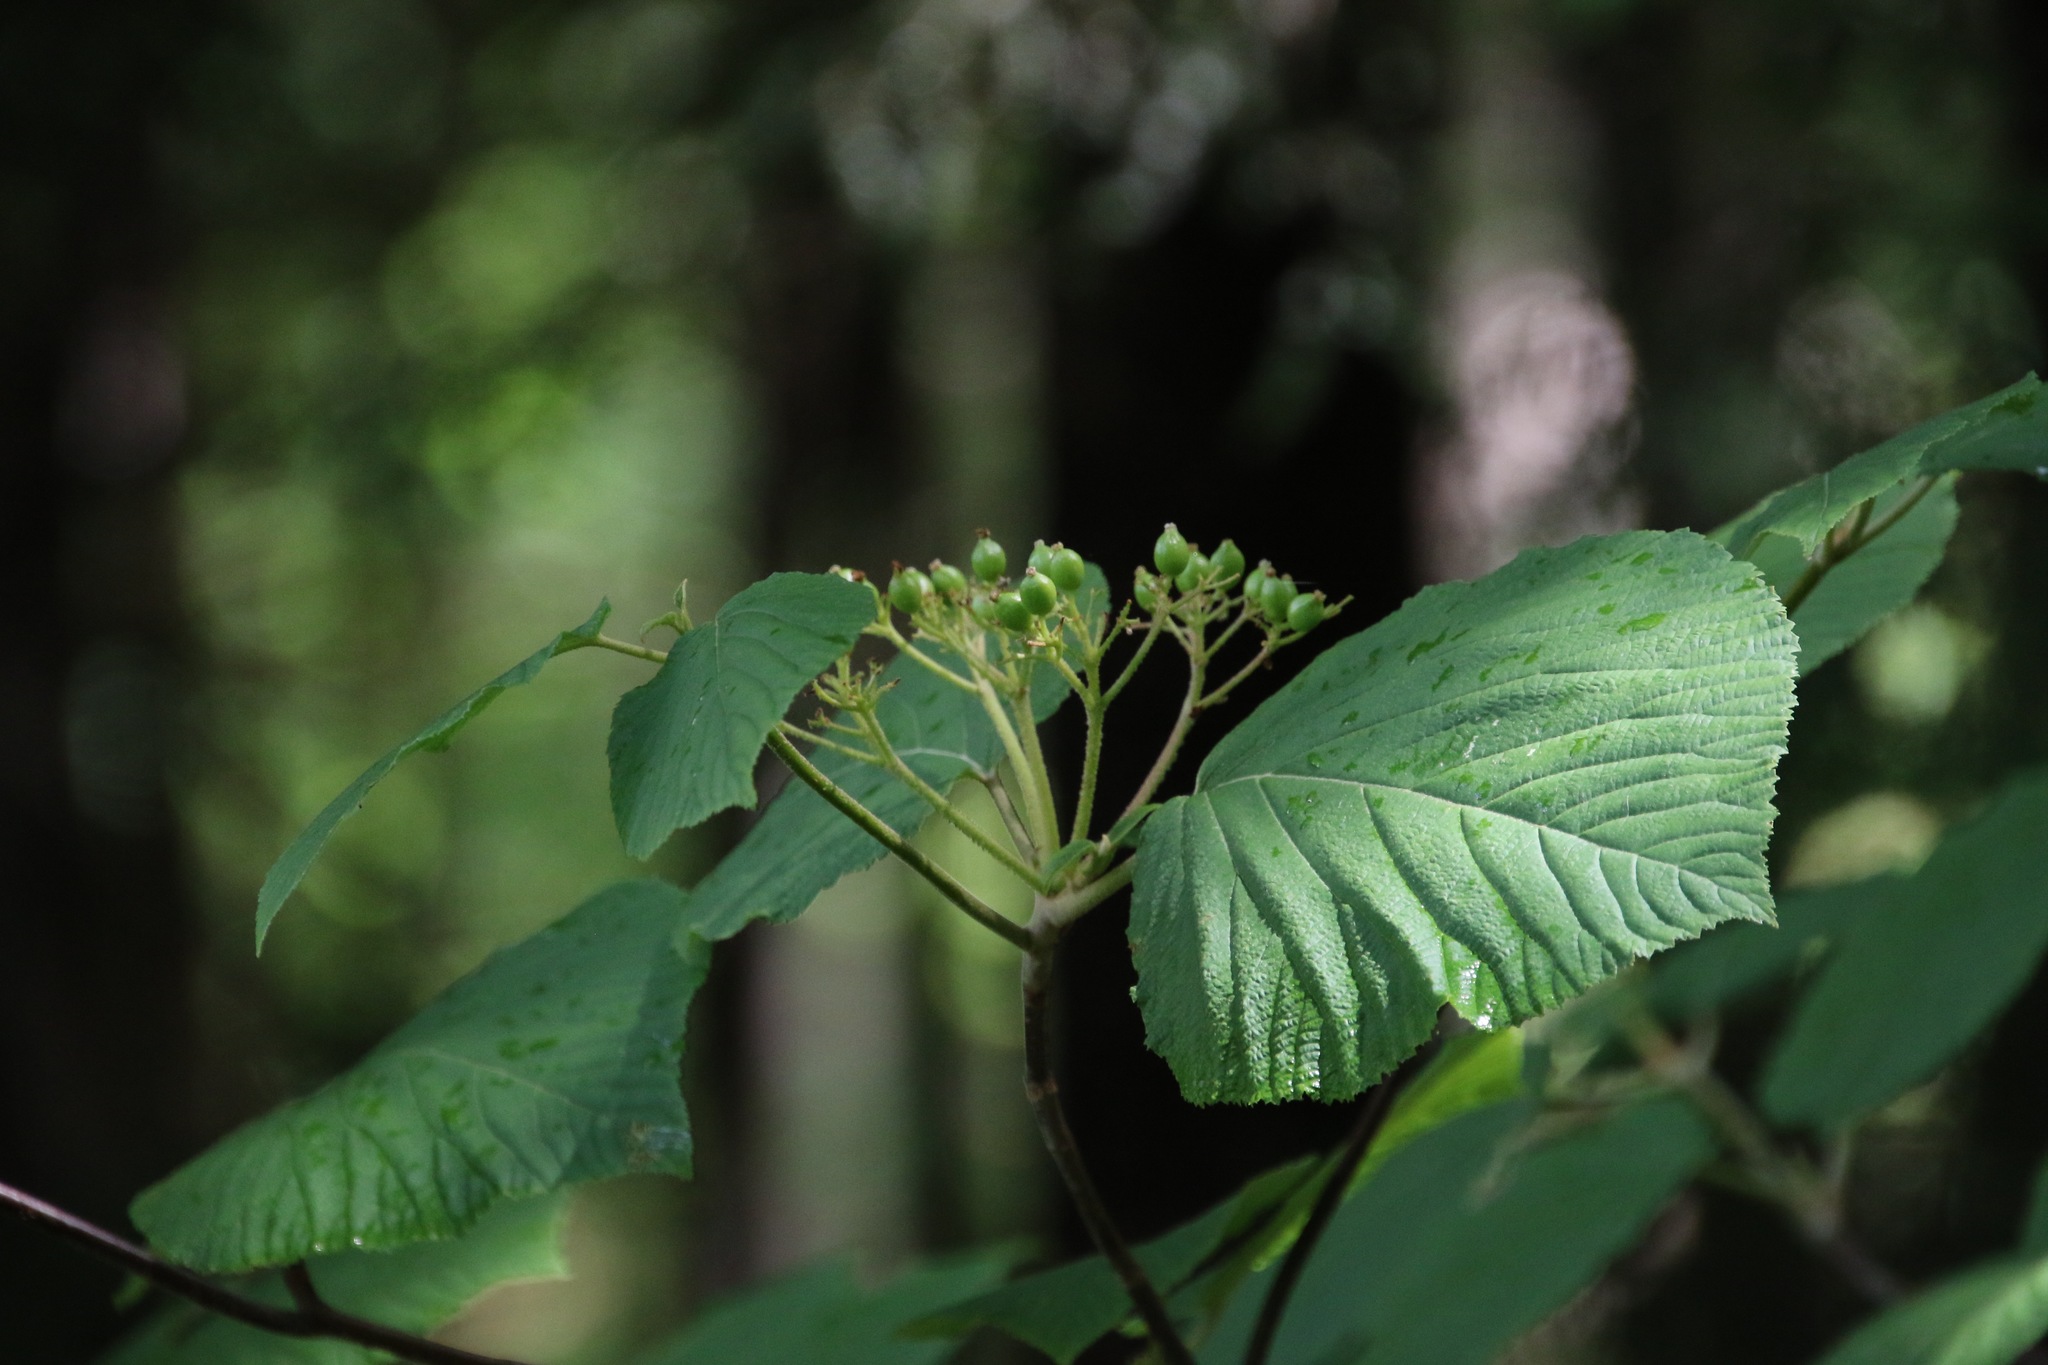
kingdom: Plantae
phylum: Tracheophyta
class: Magnoliopsida
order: Dipsacales
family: Viburnaceae
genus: Viburnum
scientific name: Viburnum lantanoides
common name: Hobblebush
